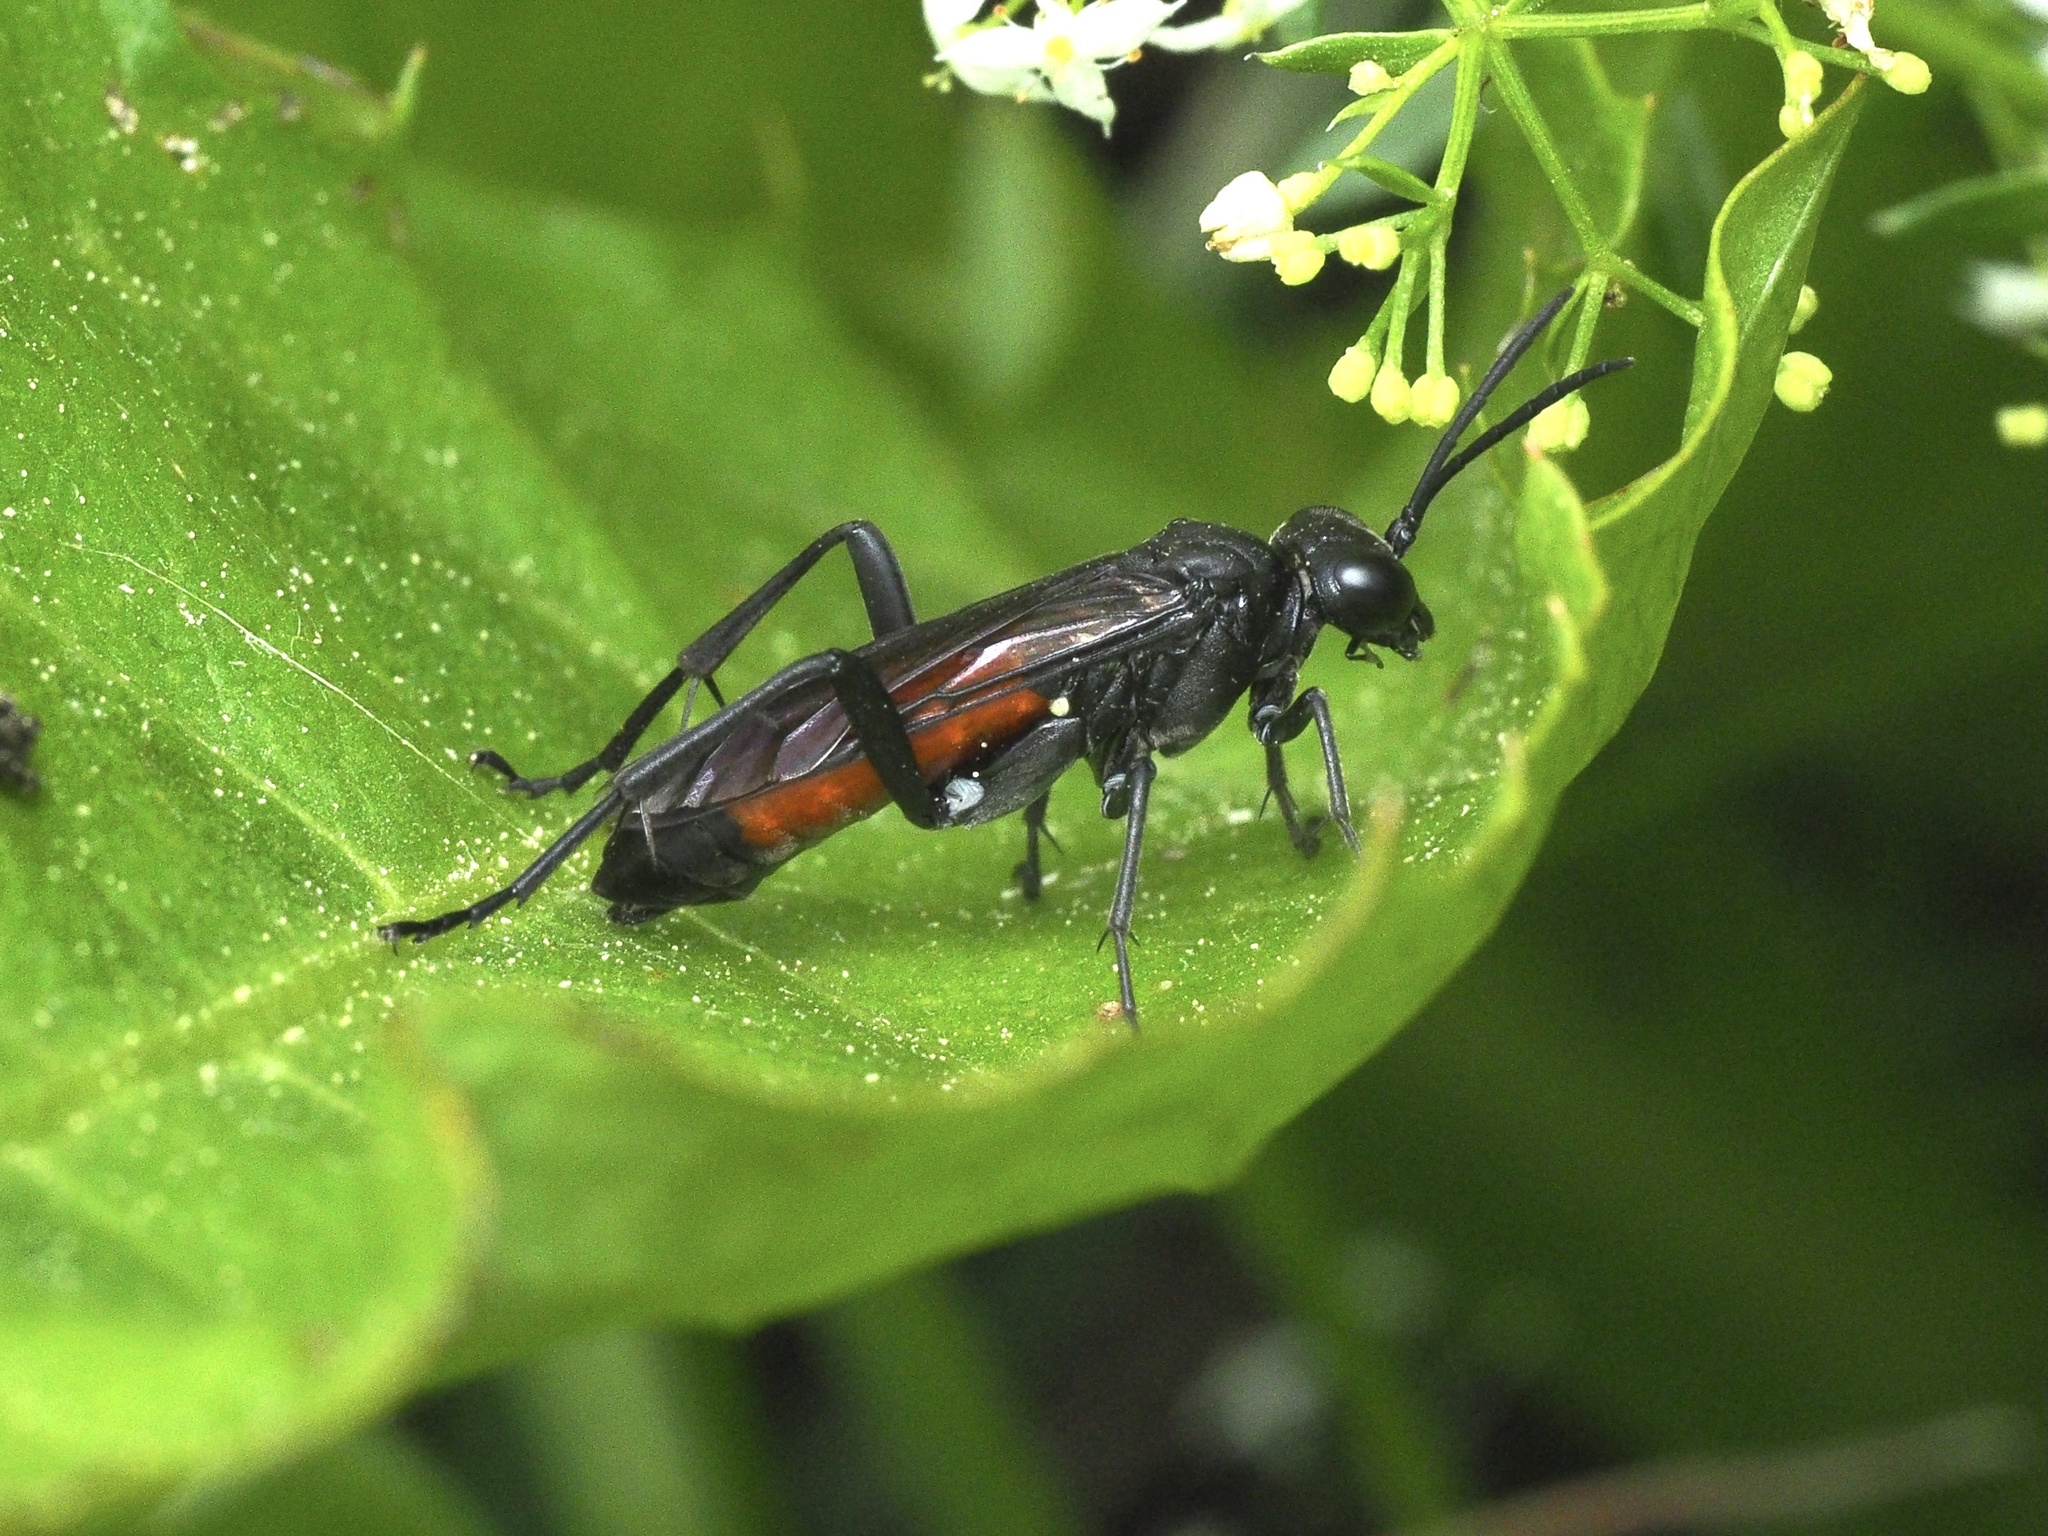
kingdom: Animalia
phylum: Arthropoda
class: Insecta
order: Hymenoptera
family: Tenthredinidae
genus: Macrophya
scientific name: Macrophya annulata
